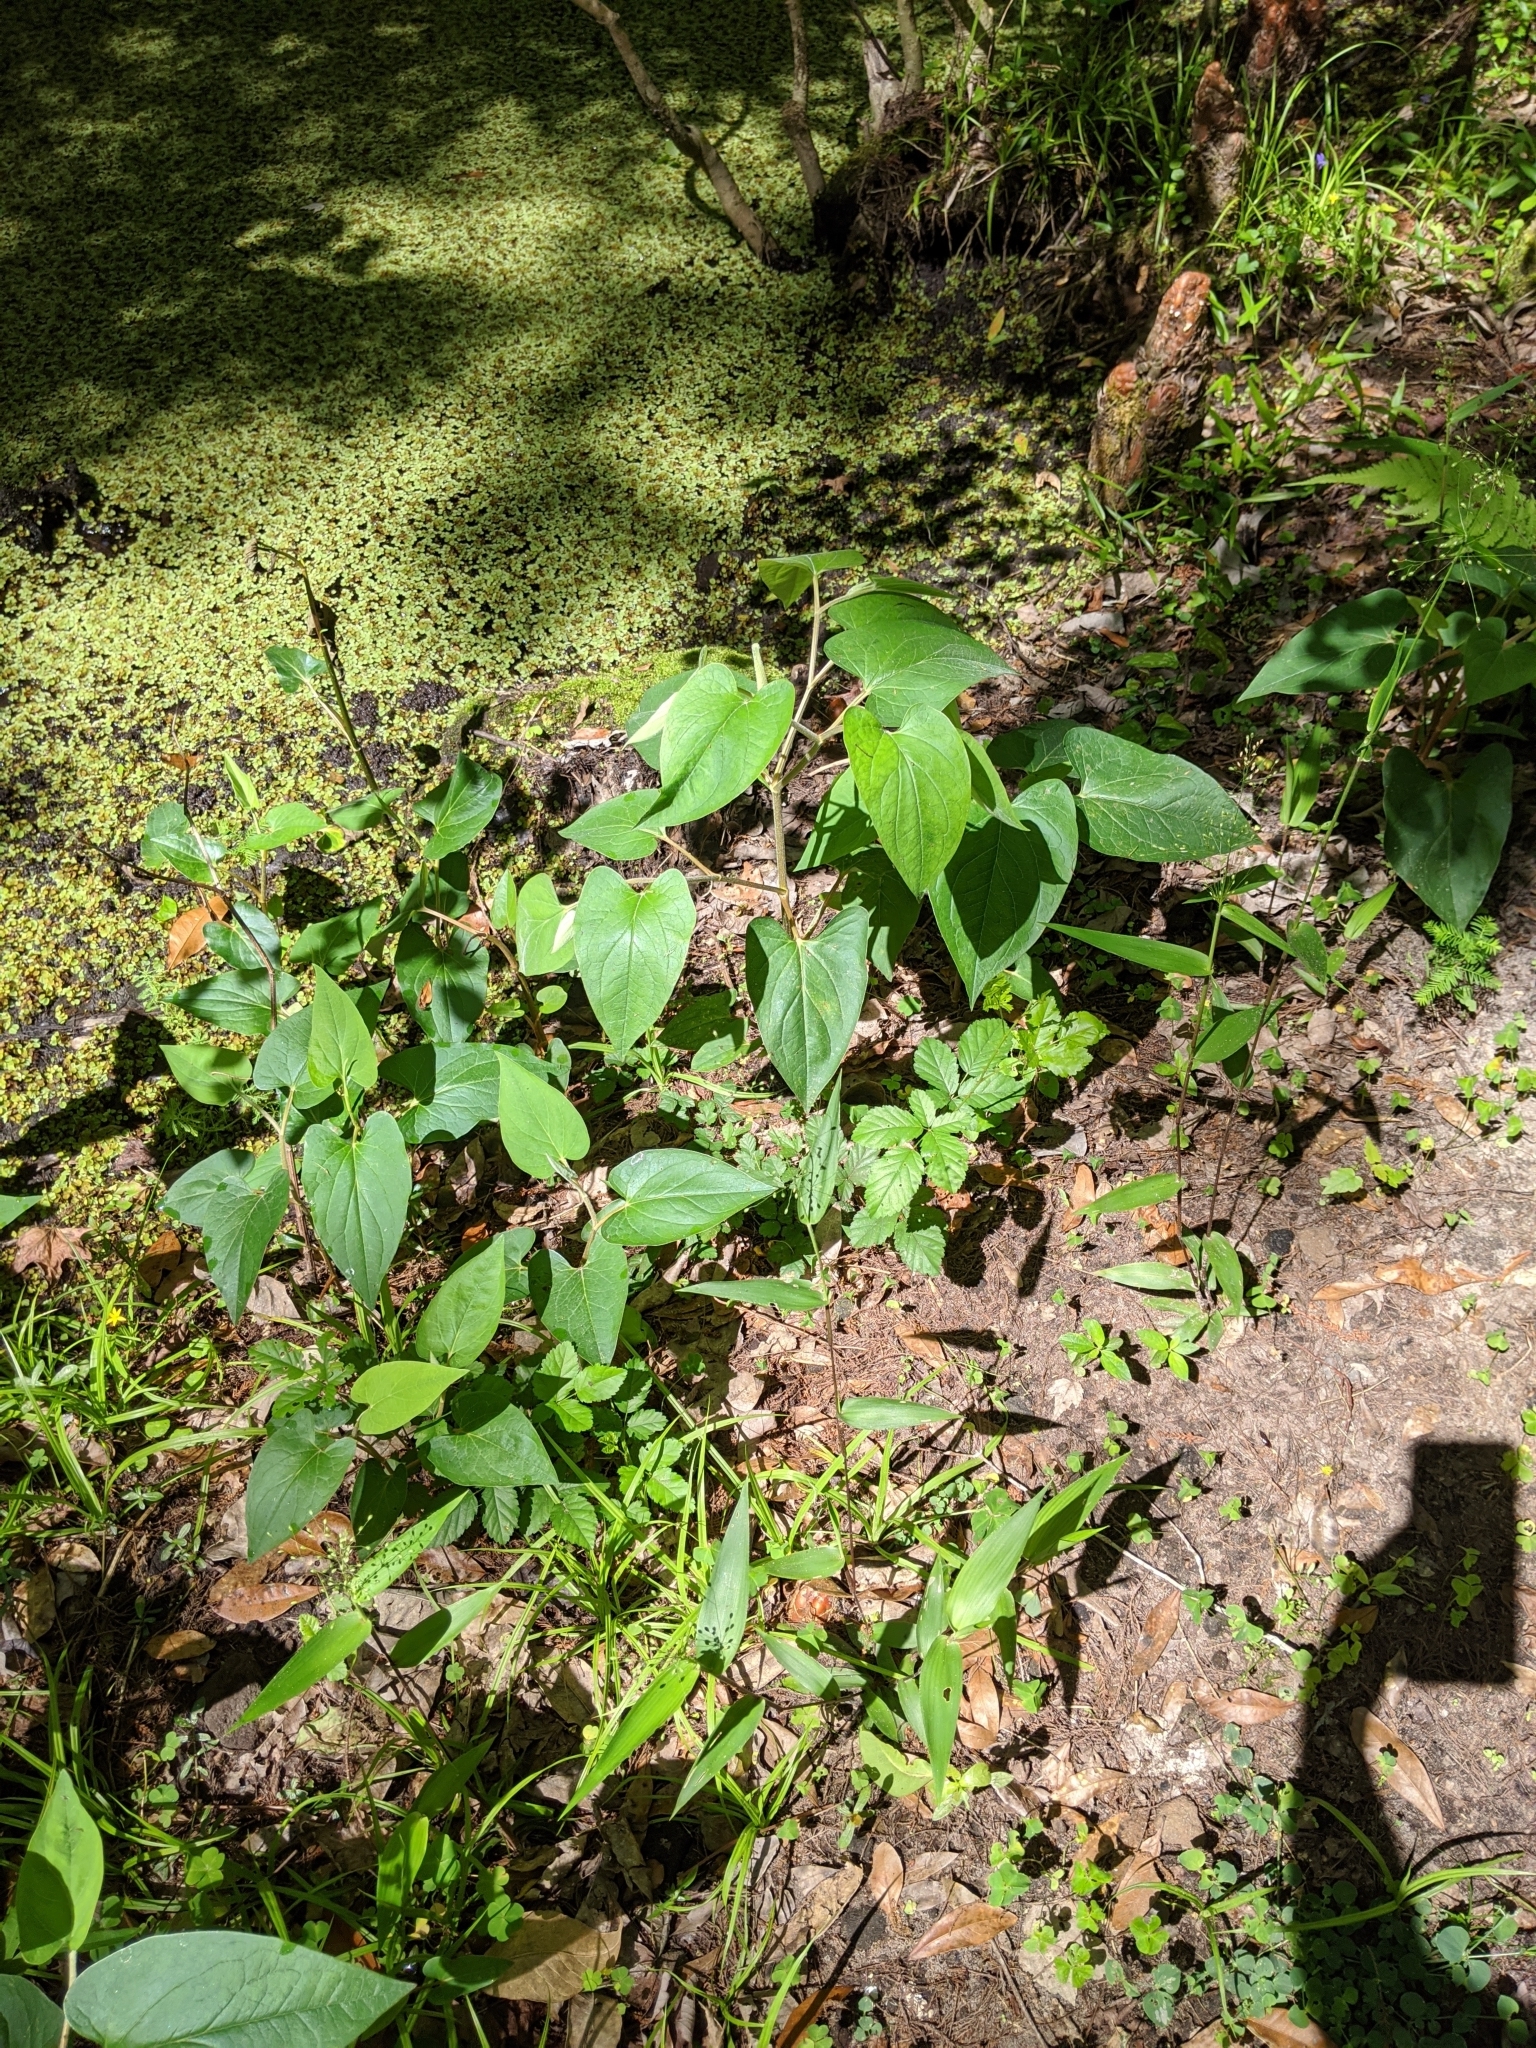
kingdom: Plantae
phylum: Tracheophyta
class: Magnoliopsida
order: Piperales
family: Saururaceae
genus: Saururus
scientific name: Saururus cernuus
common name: Lizard's-tail
